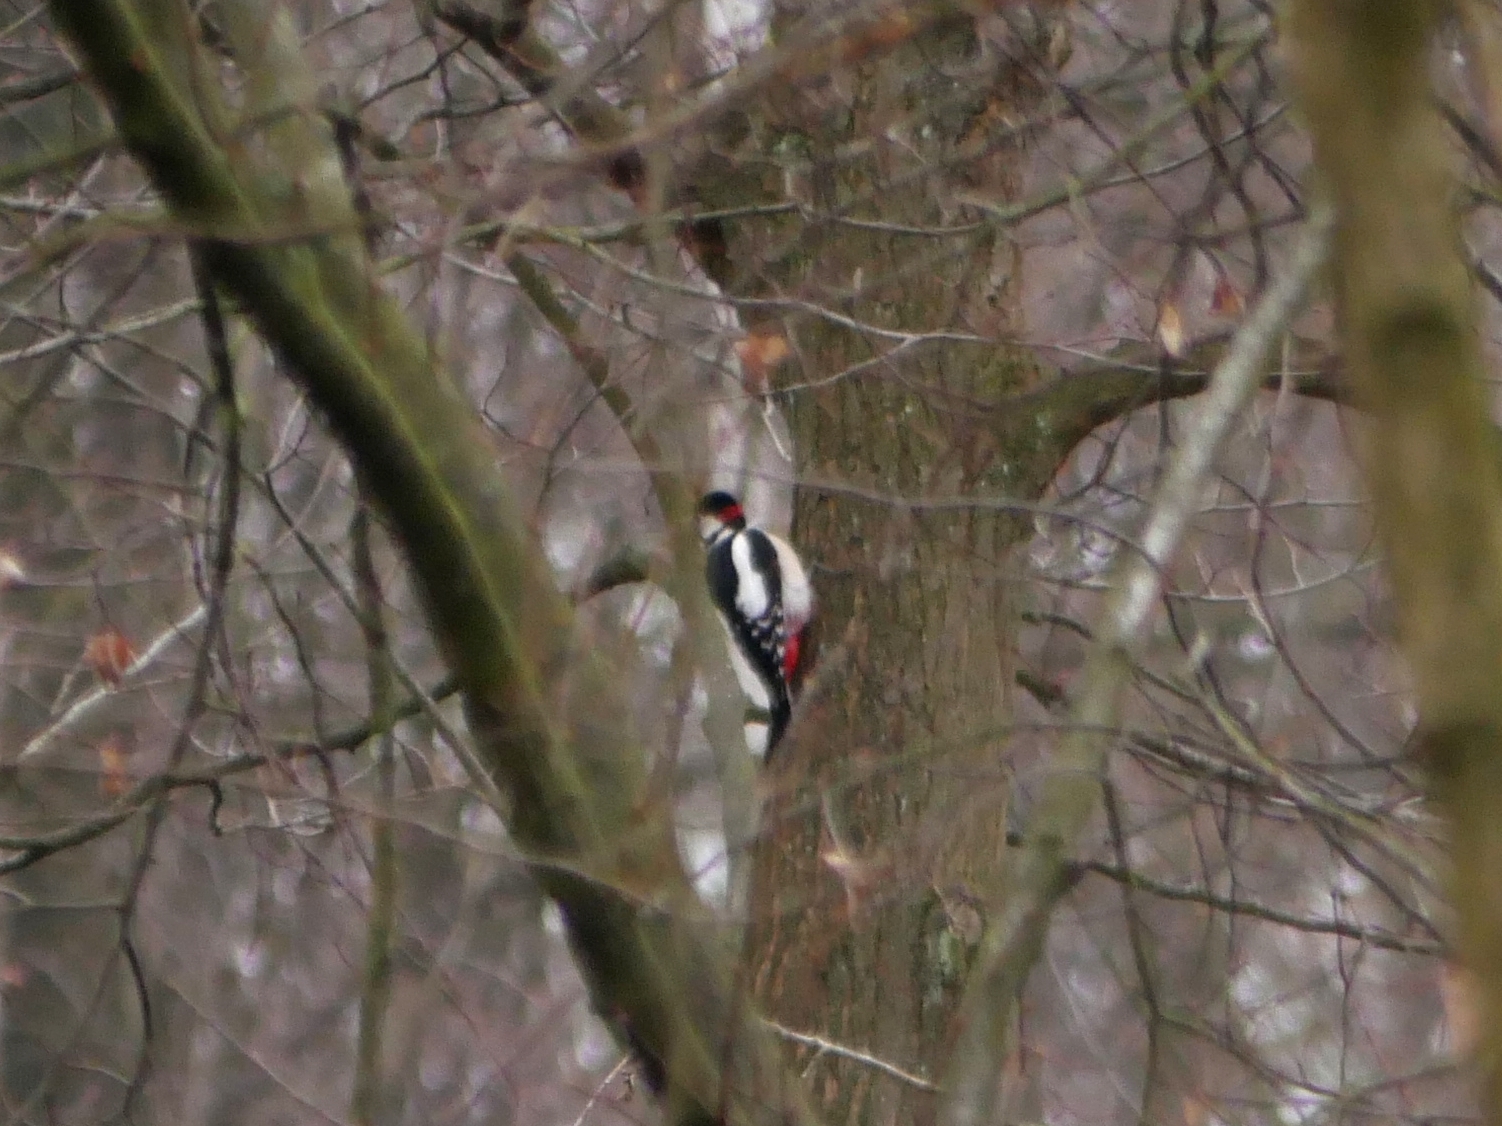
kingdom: Animalia
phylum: Chordata
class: Aves
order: Piciformes
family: Picidae
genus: Dendrocopos
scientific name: Dendrocopos major
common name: Great spotted woodpecker
